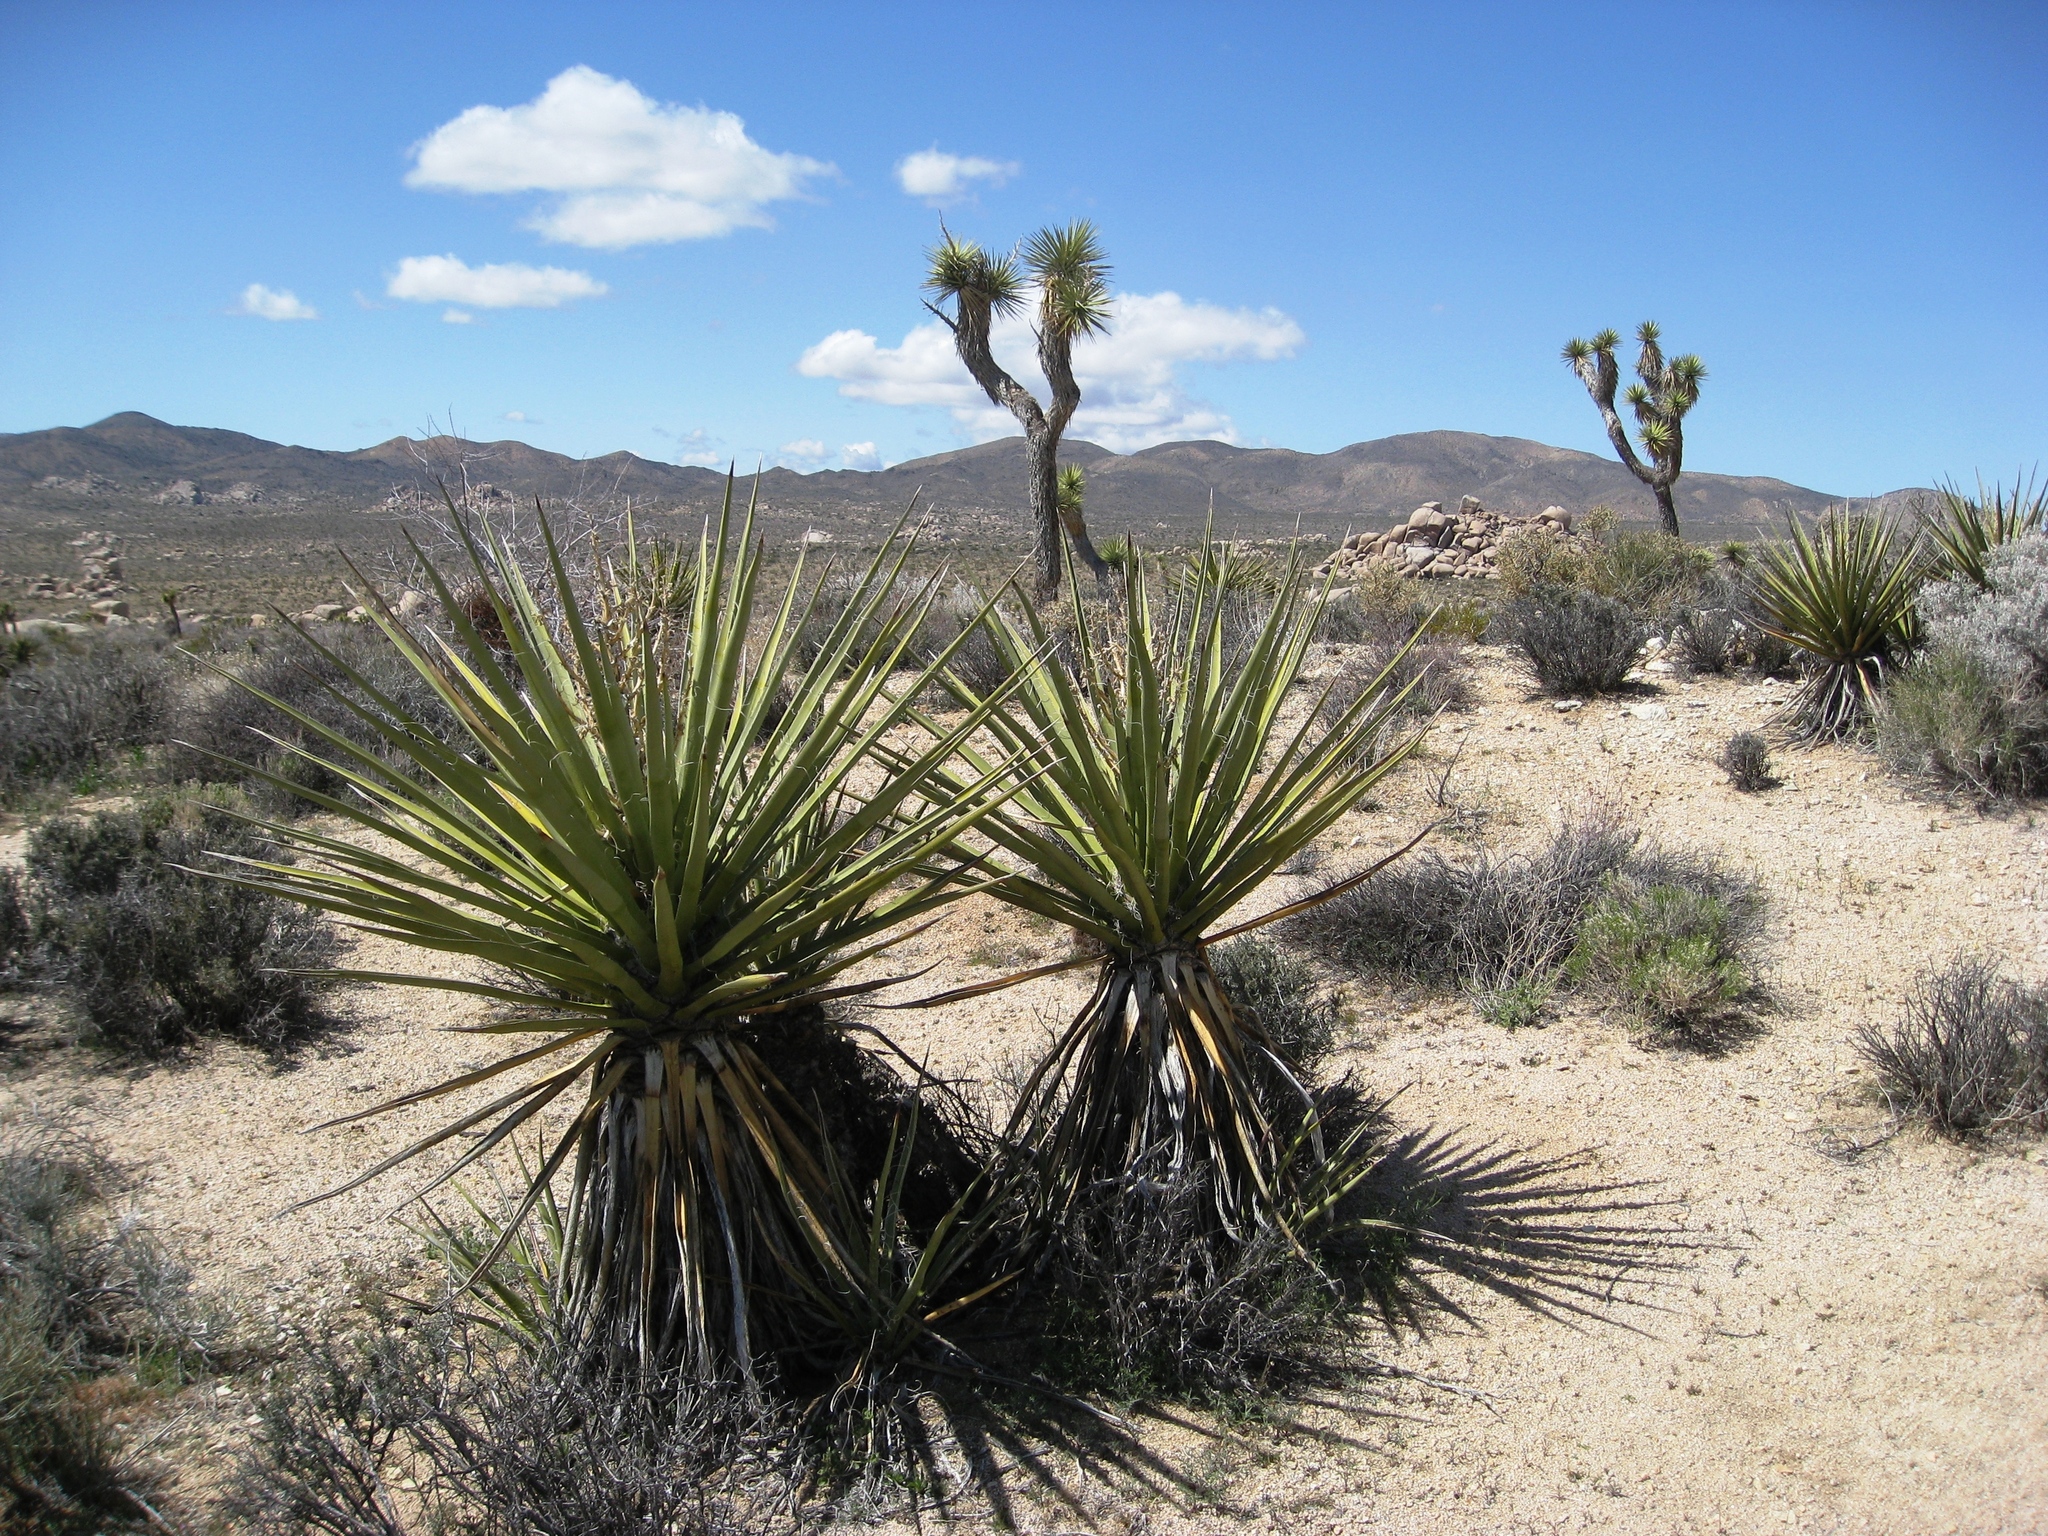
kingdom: Plantae
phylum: Tracheophyta
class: Liliopsida
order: Asparagales
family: Asparagaceae
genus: Yucca
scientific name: Yucca schidigera
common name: Mojave yucca
